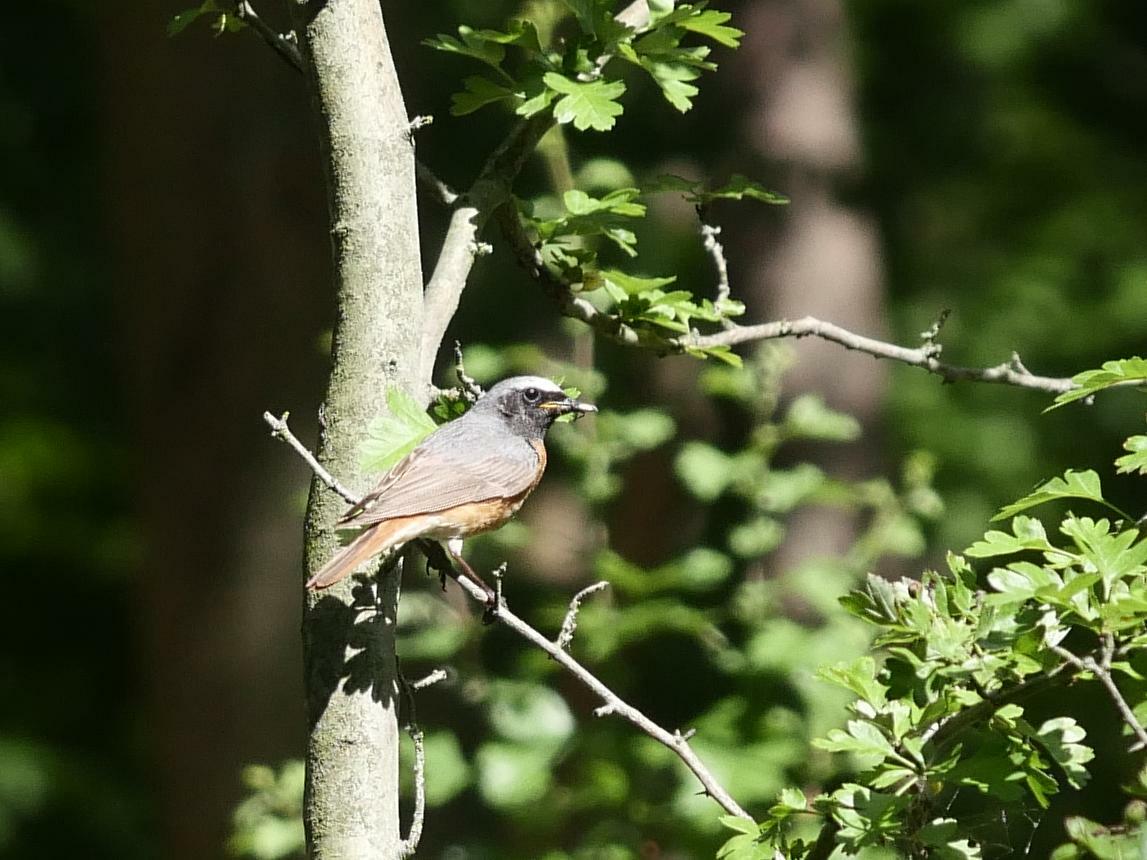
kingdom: Animalia
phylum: Chordata
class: Aves
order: Passeriformes
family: Muscicapidae
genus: Phoenicurus
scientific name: Phoenicurus phoenicurus
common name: Common redstart
